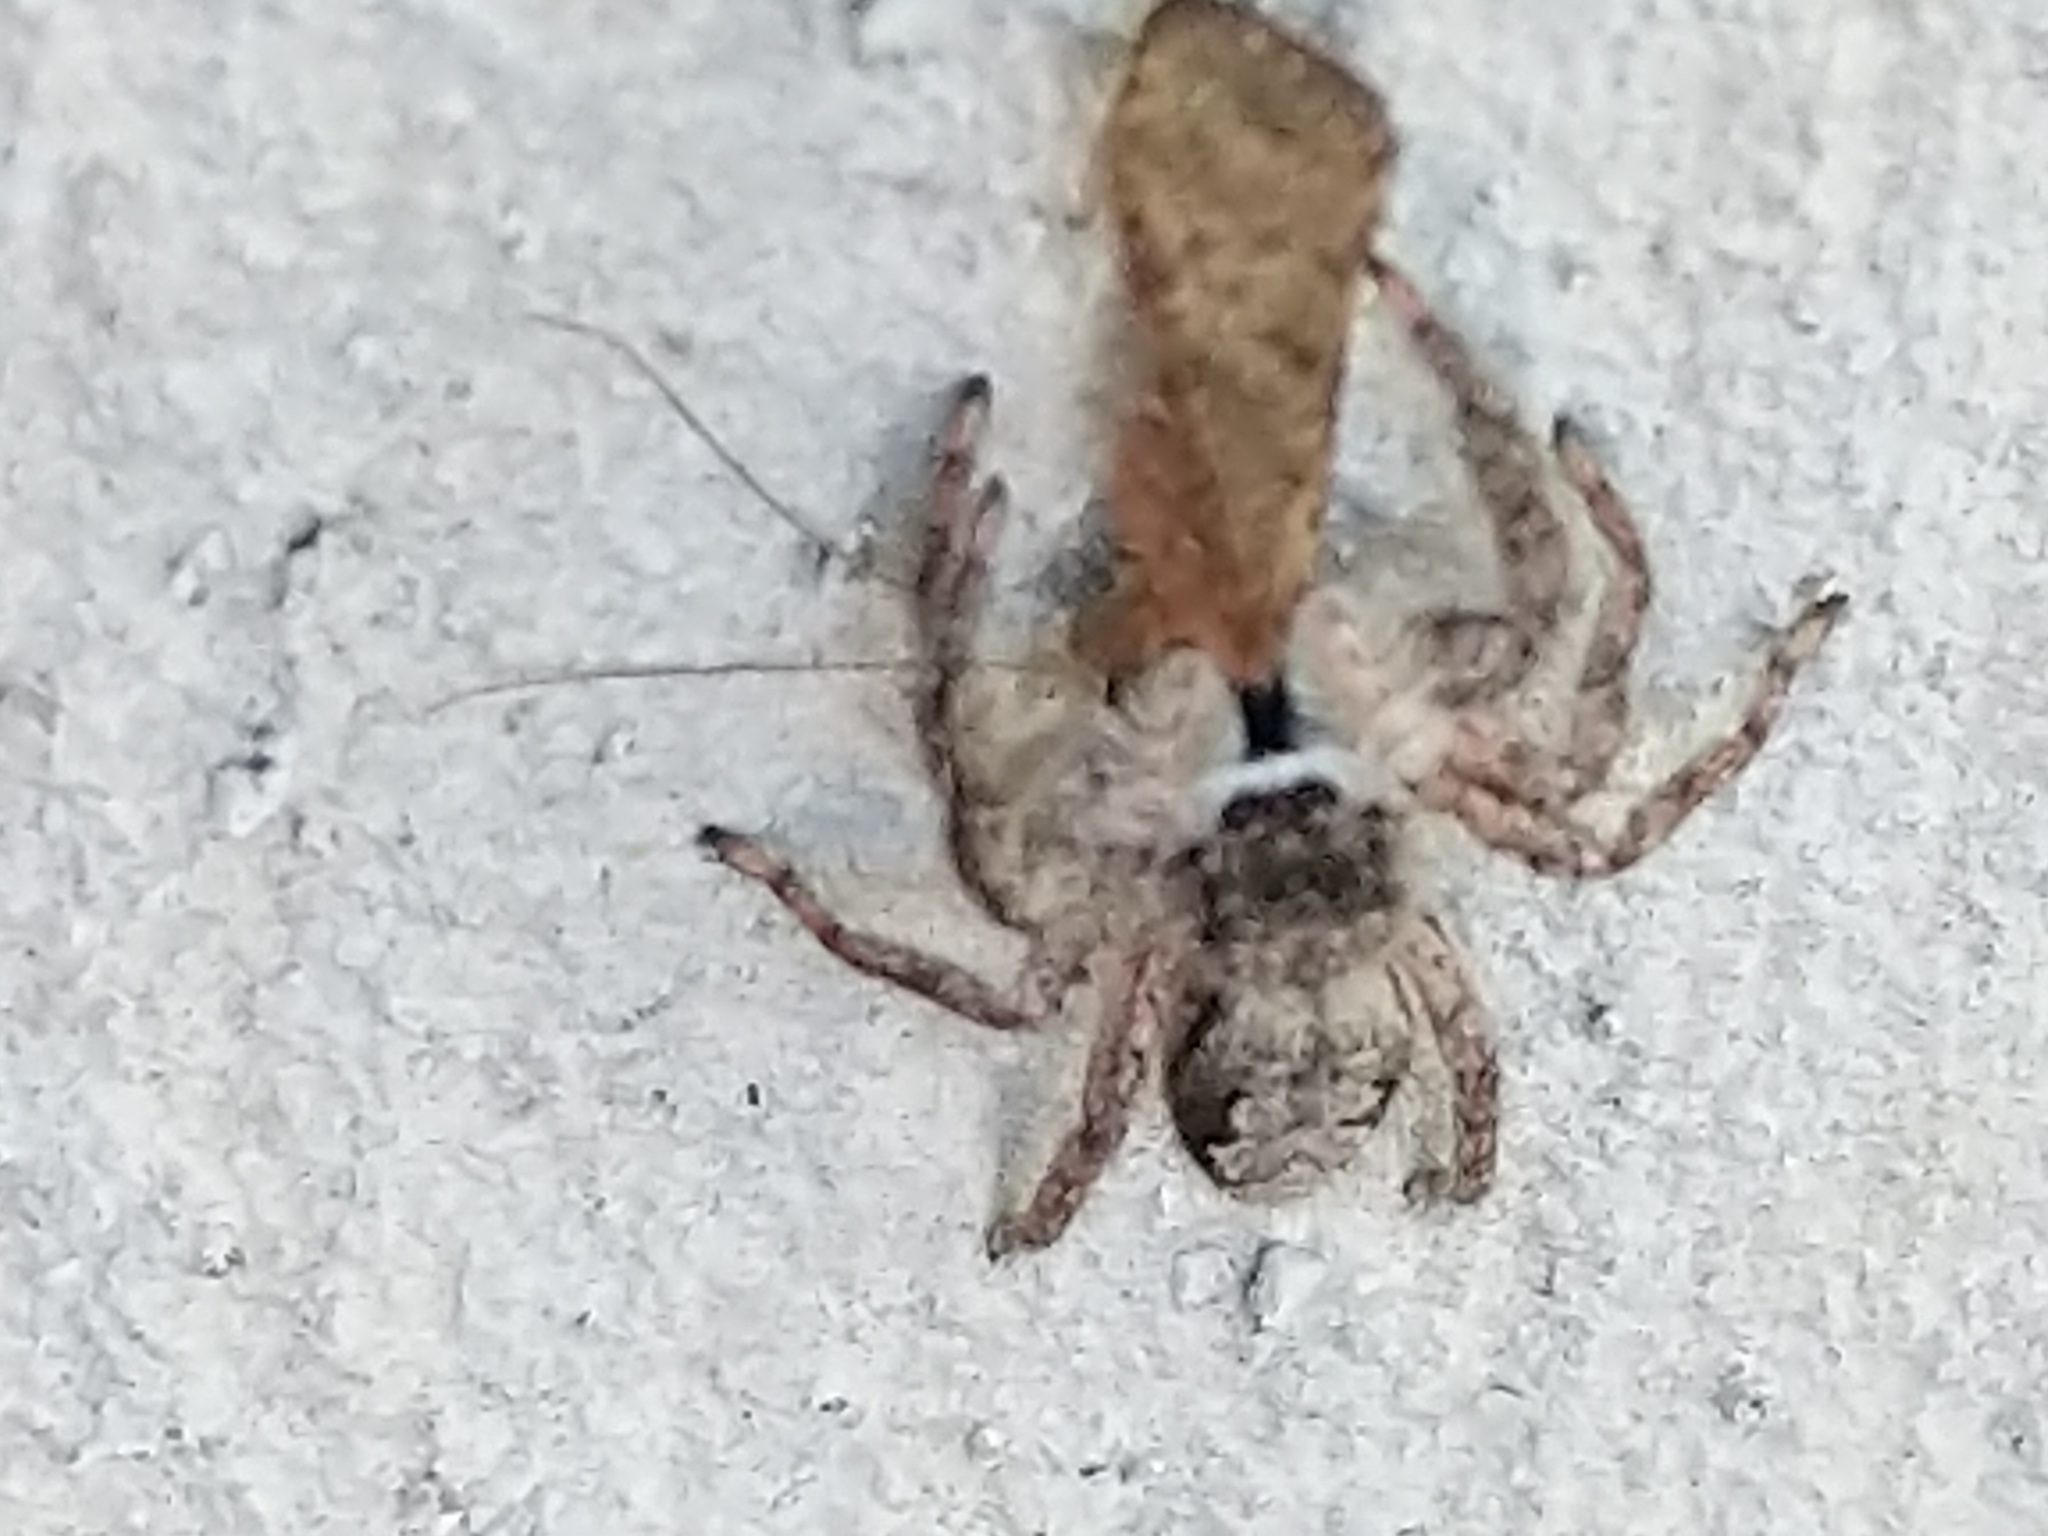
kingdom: Animalia
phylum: Arthropoda
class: Arachnida
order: Araneae
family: Salticidae
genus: Platycryptus
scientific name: Platycryptus undatus
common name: Tan jumping spider
